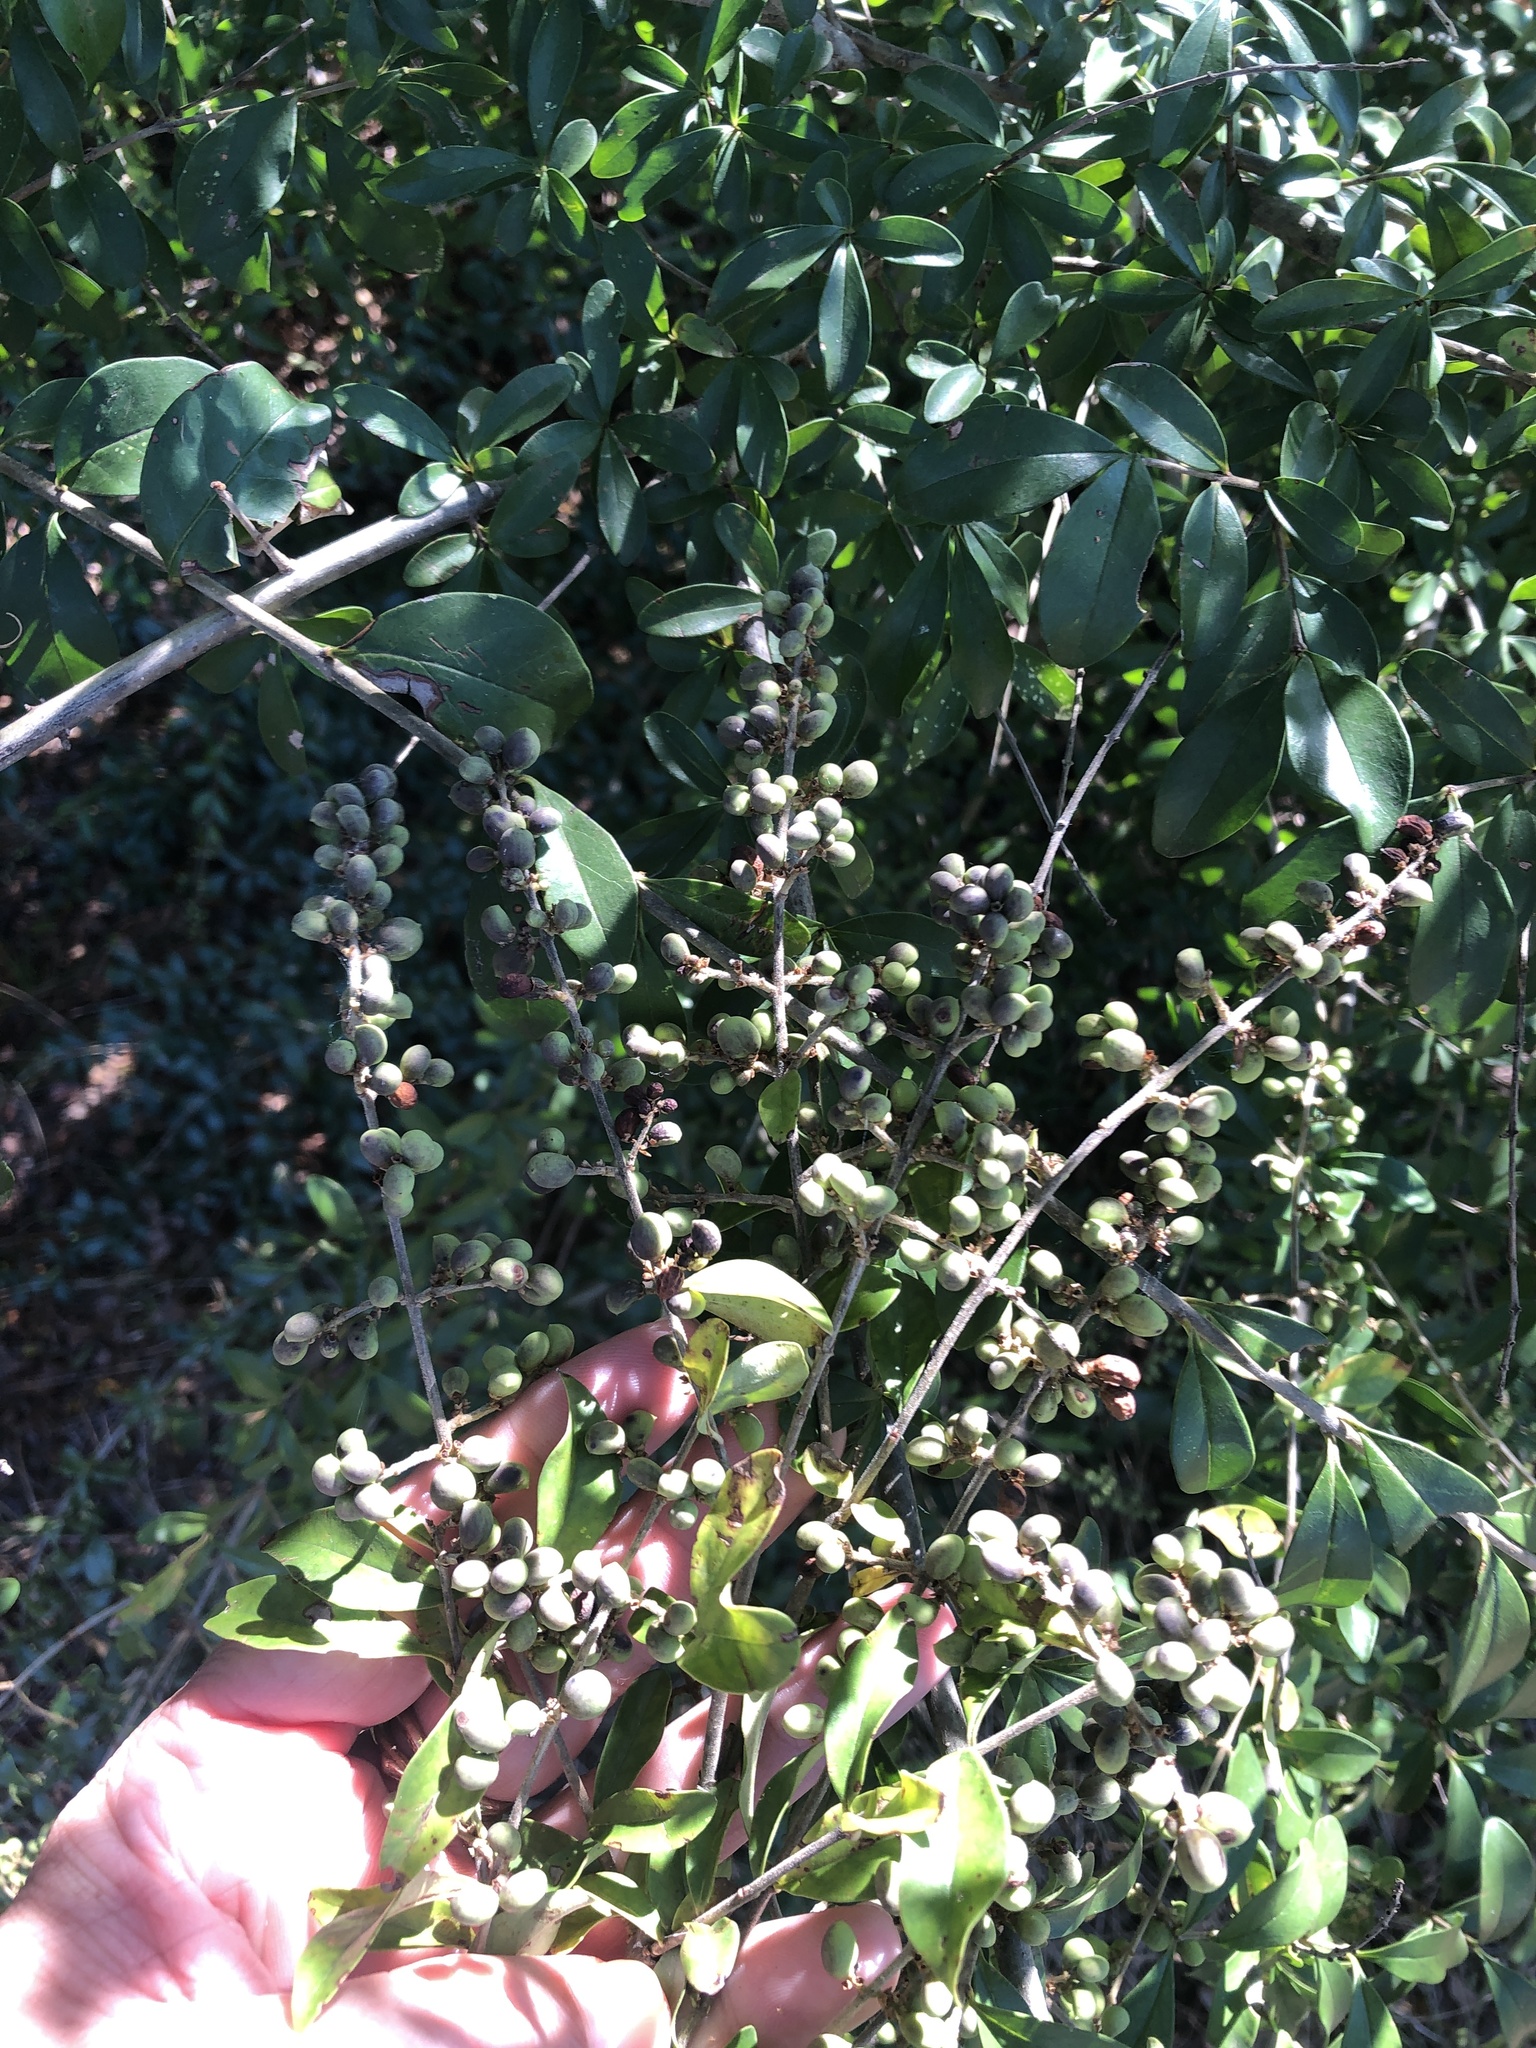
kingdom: Plantae
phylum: Tracheophyta
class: Magnoliopsida
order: Lamiales
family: Oleaceae
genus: Ligustrum
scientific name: Ligustrum quihoui
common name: Waxyleaf privet
